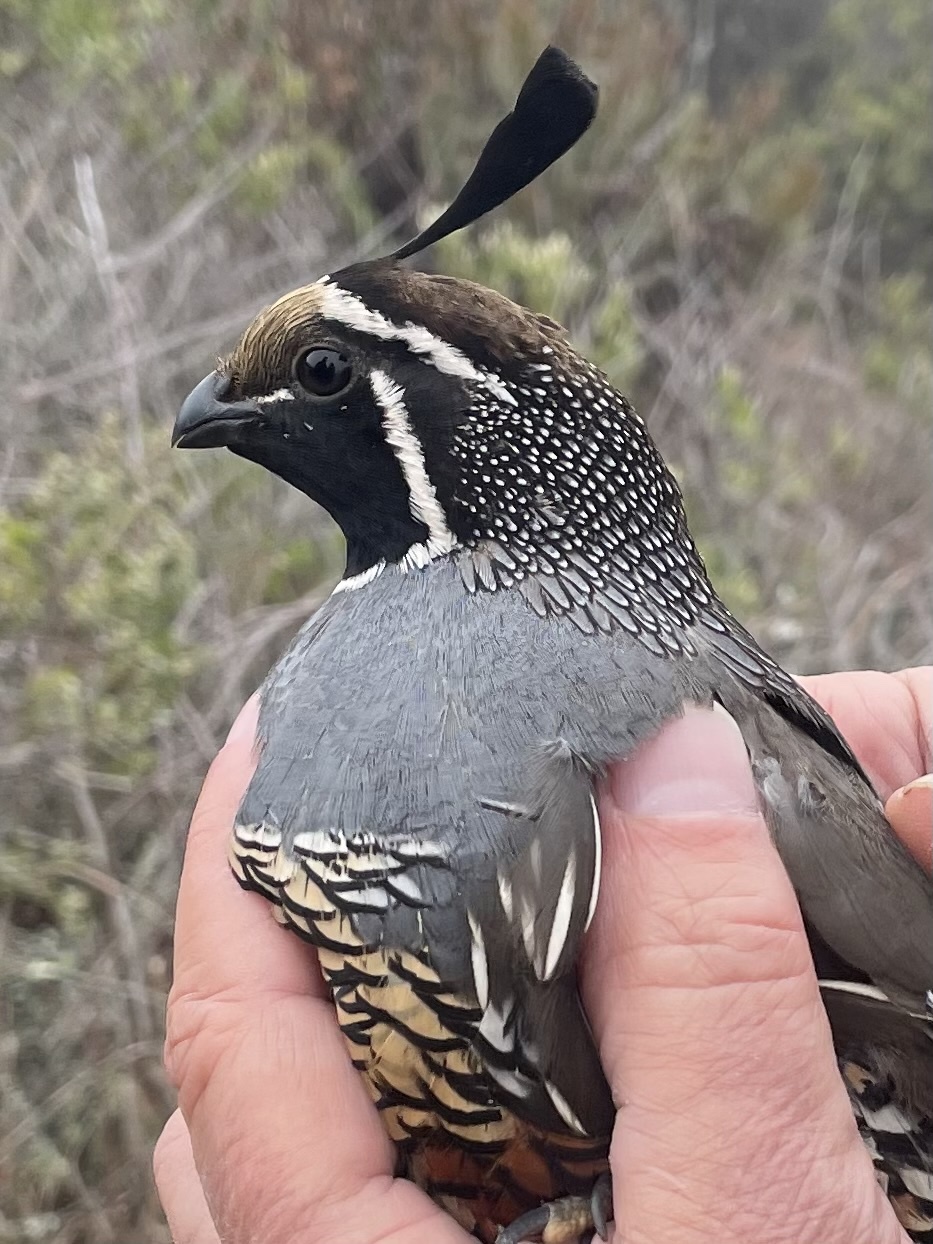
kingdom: Animalia
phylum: Chordata
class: Aves
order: Galliformes
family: Odontophoridae
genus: Callipepla
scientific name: Callipepla californica
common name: California quail
